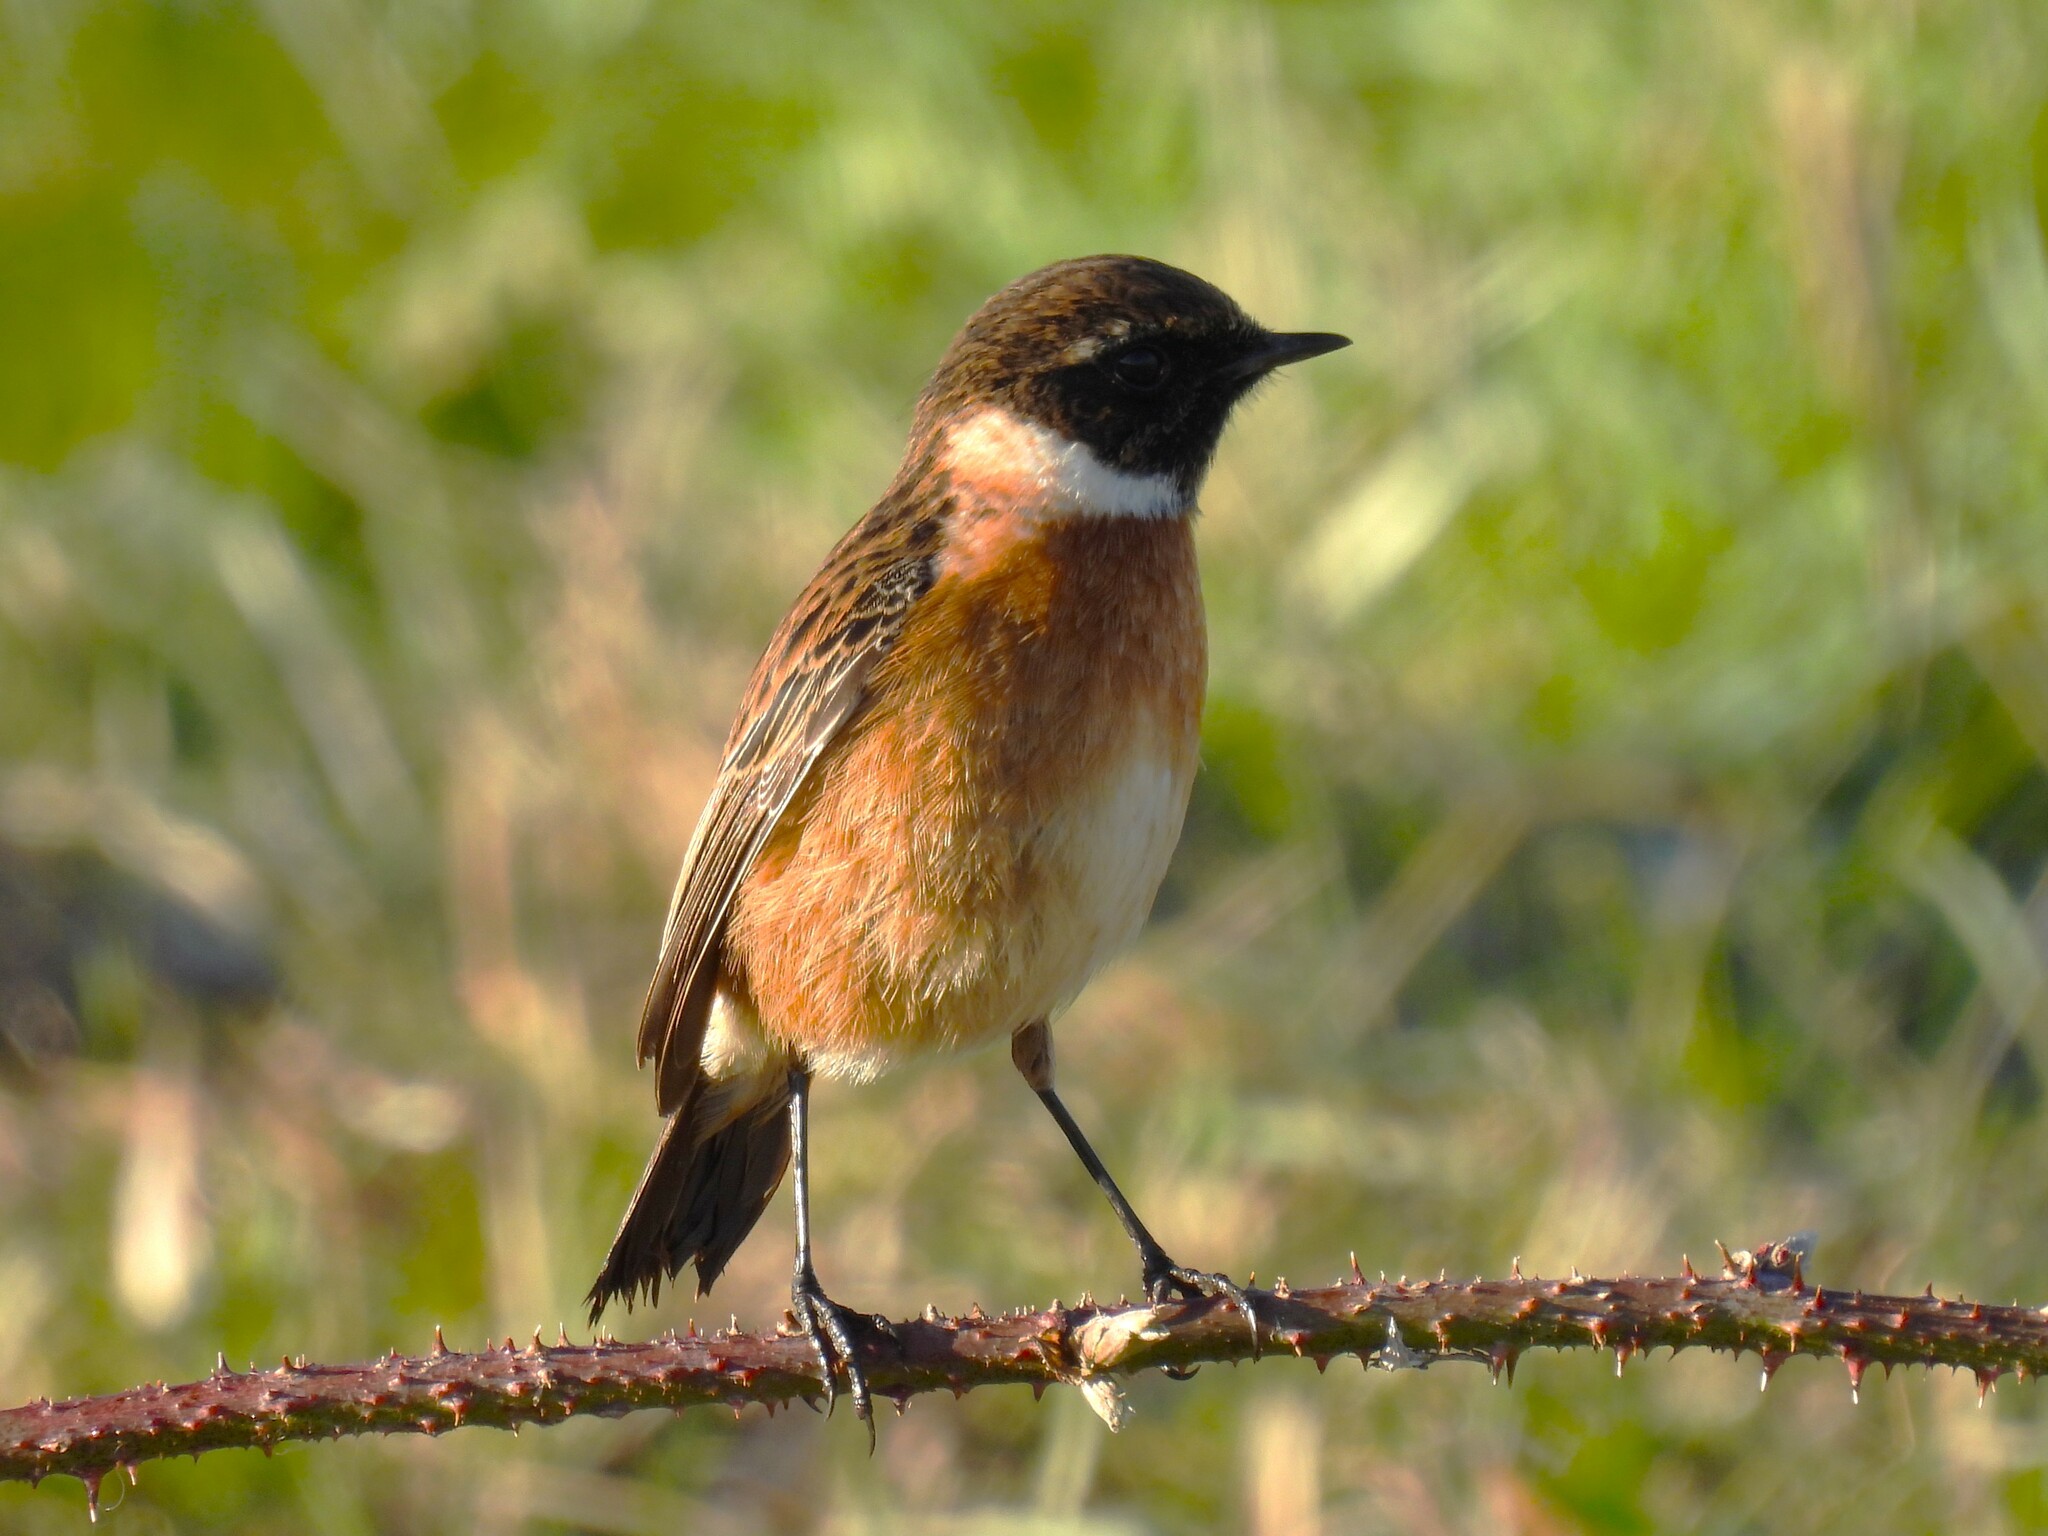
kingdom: Animalia
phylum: Chordata
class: Aves
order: Passeriformes
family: Muscicapidae
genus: Saxicola
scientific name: Saxicola rubicola
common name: European stonechat
